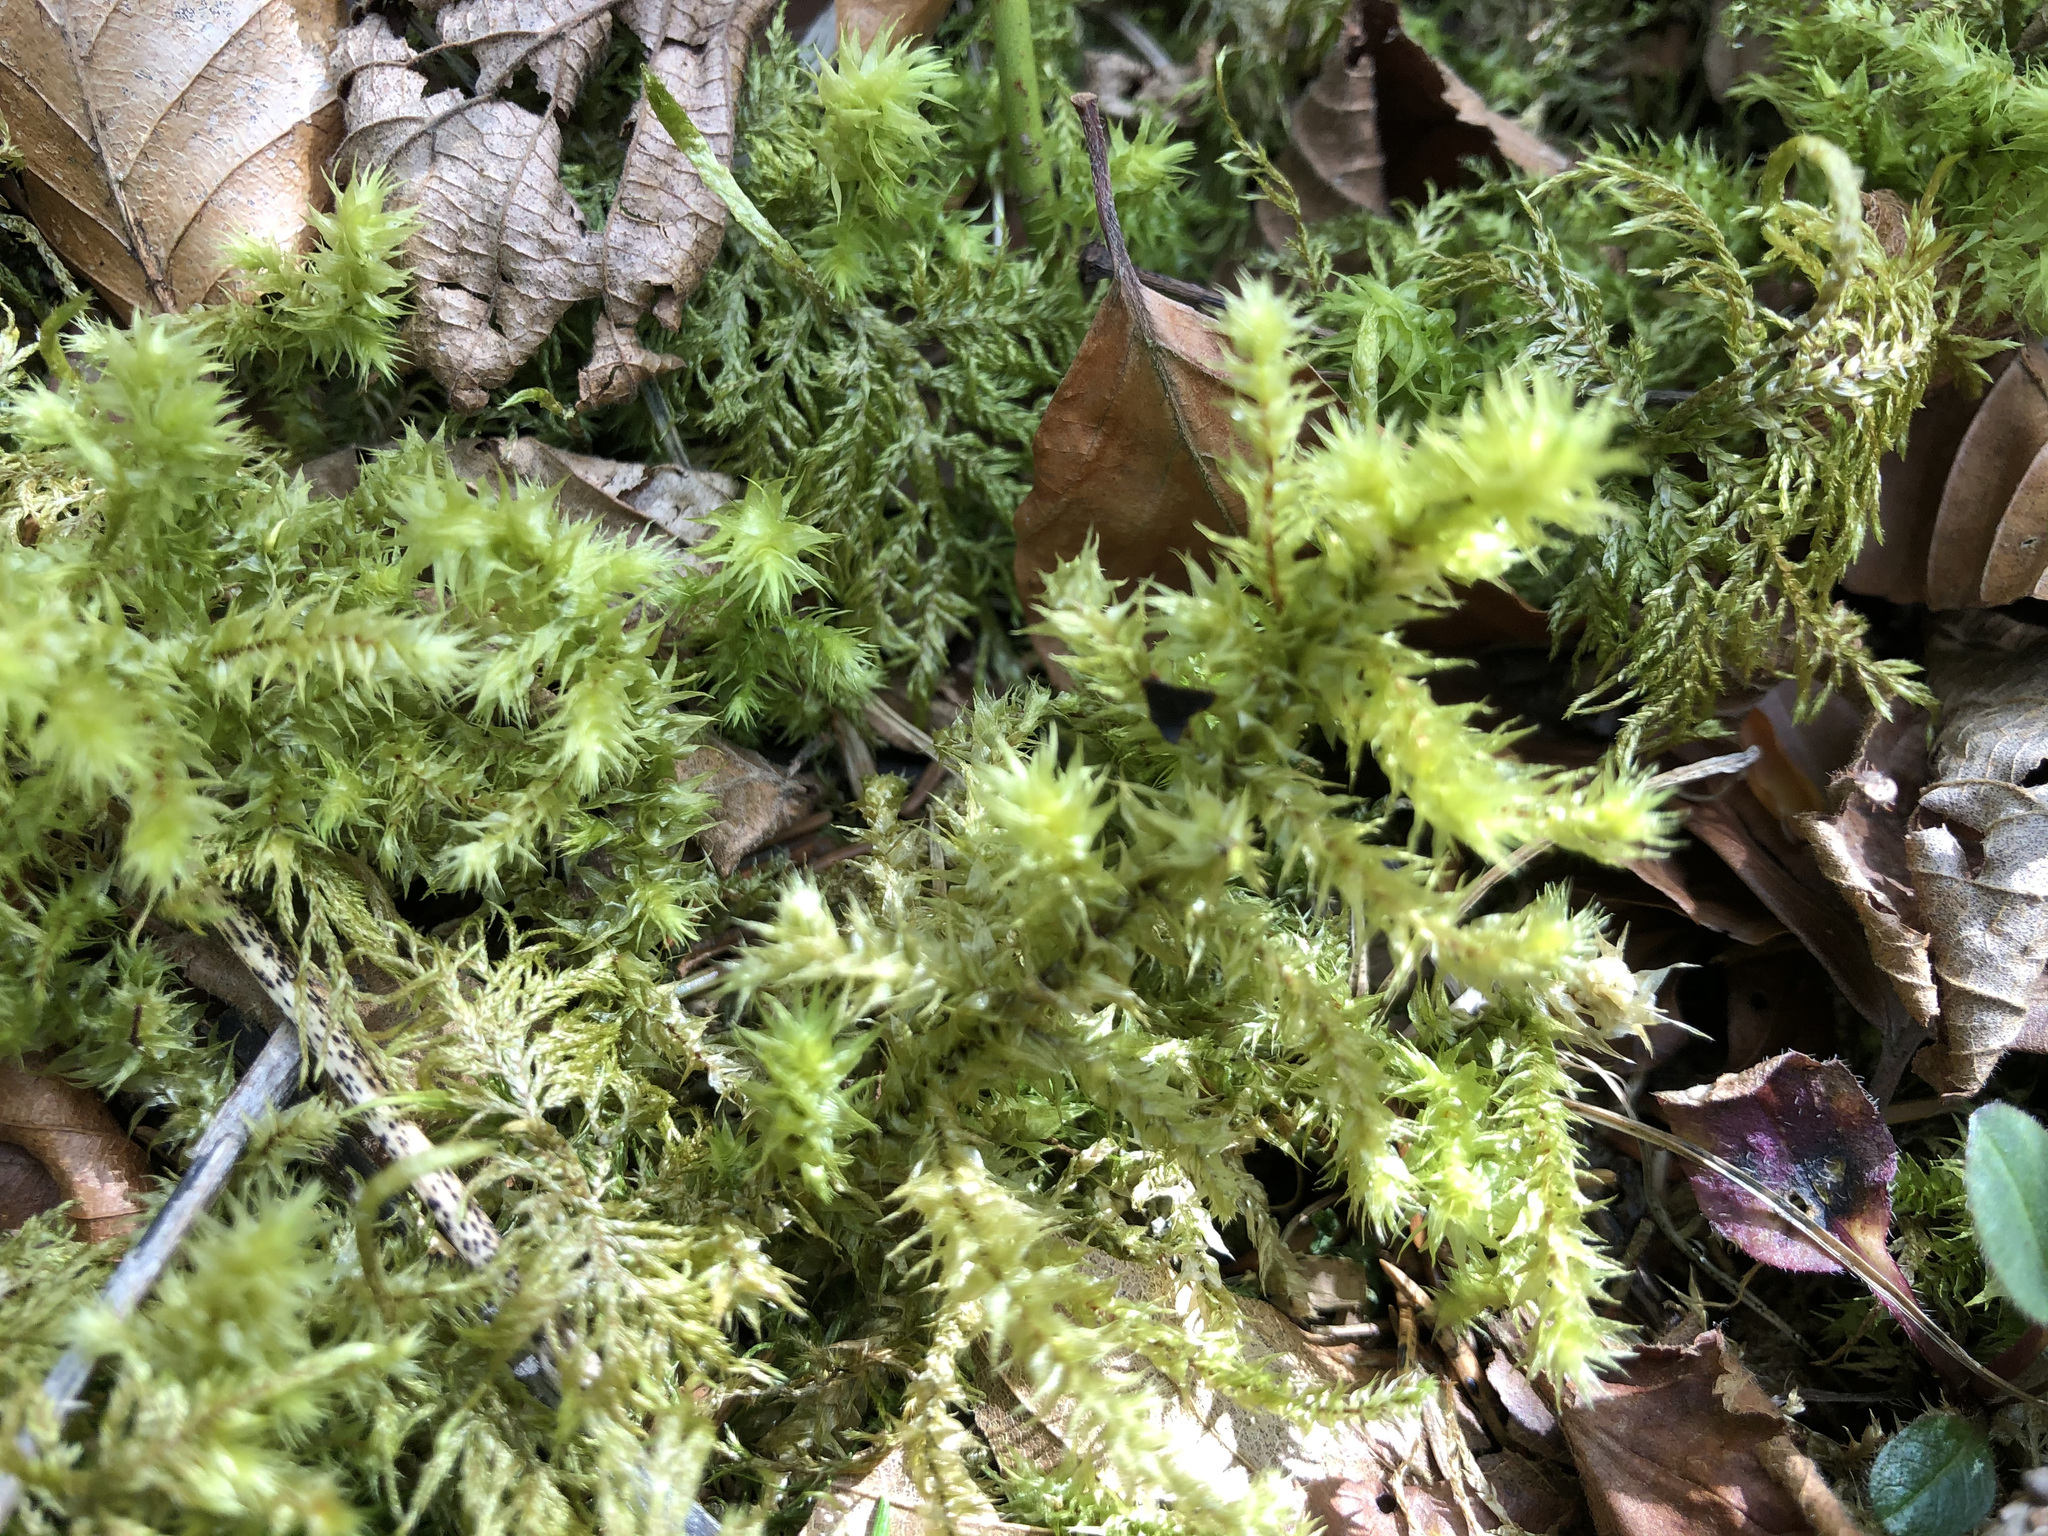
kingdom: Plantae
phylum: Bryophyta
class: Bryopsida
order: Hypnales
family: Hylocomiaceae
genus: Hylocomiadelphus
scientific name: Hylocomiadelphus triquetrus
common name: Rough goose neck moss
